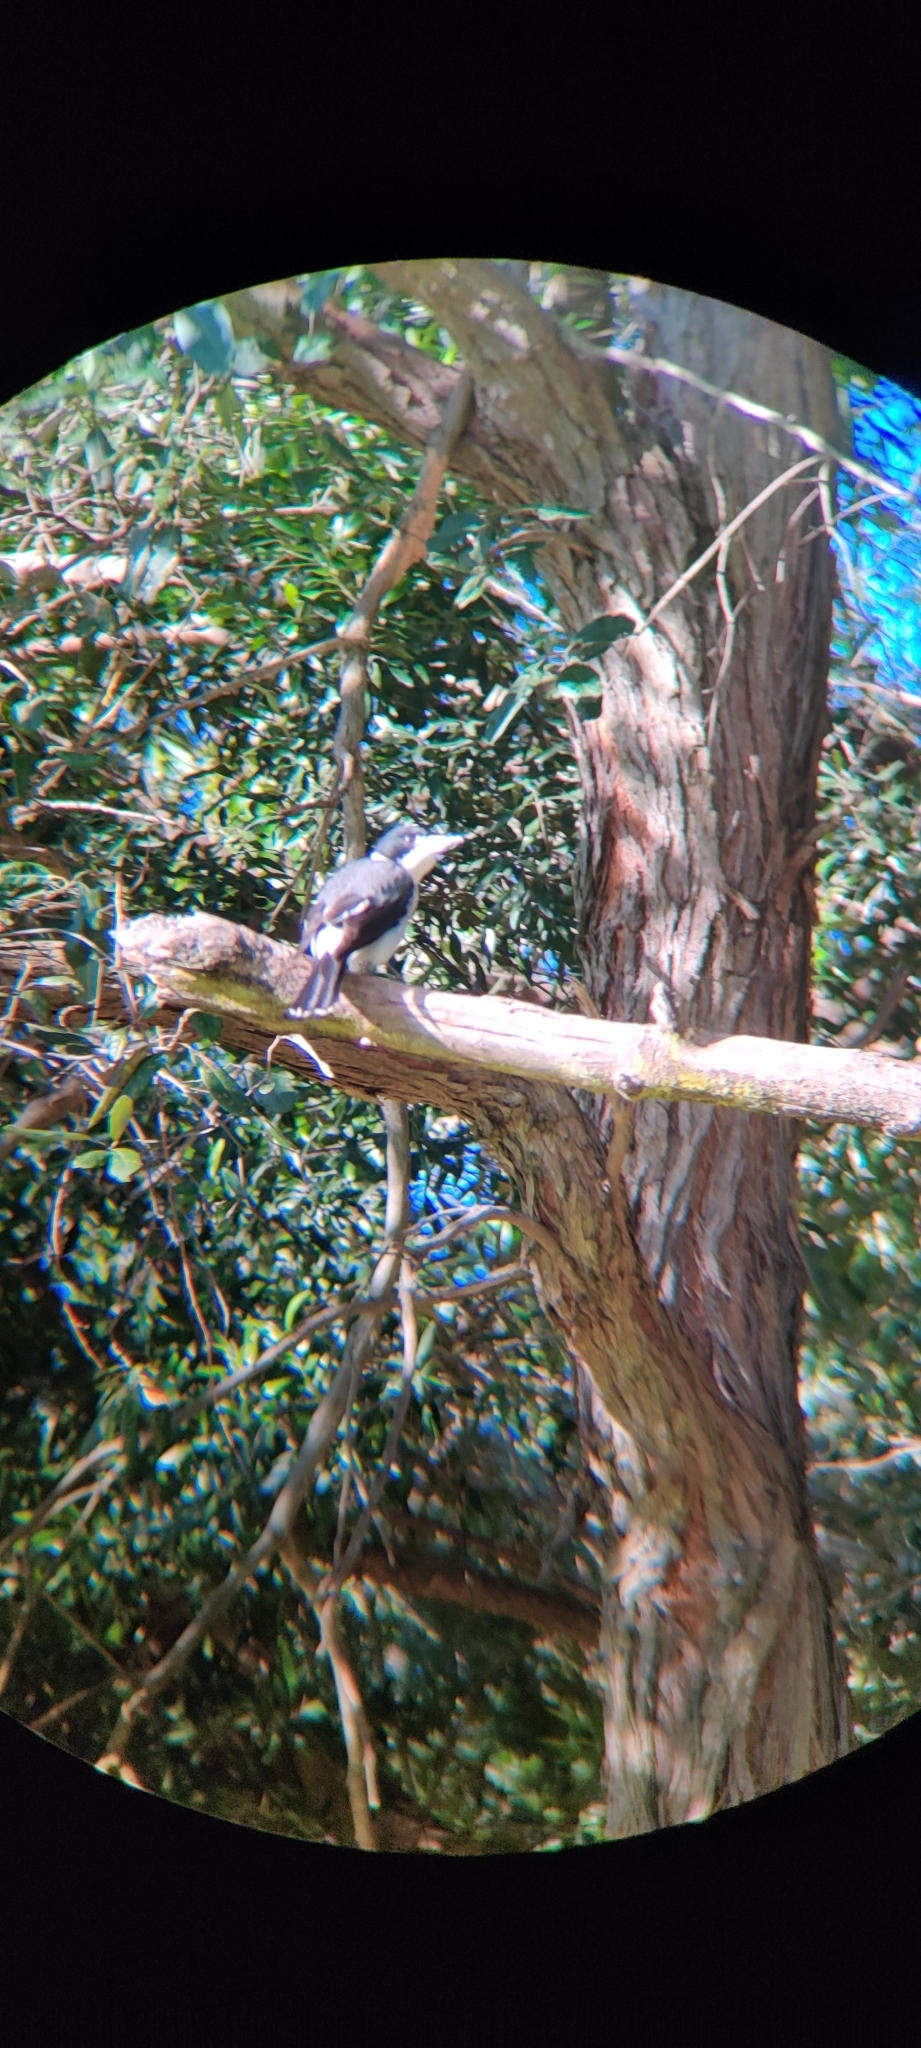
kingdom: Animalia
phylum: Chordata
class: Aves
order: Passeriformes
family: Cracticidae
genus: Cracticus
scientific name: Cracticus torquatus
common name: Grey butcherbird
